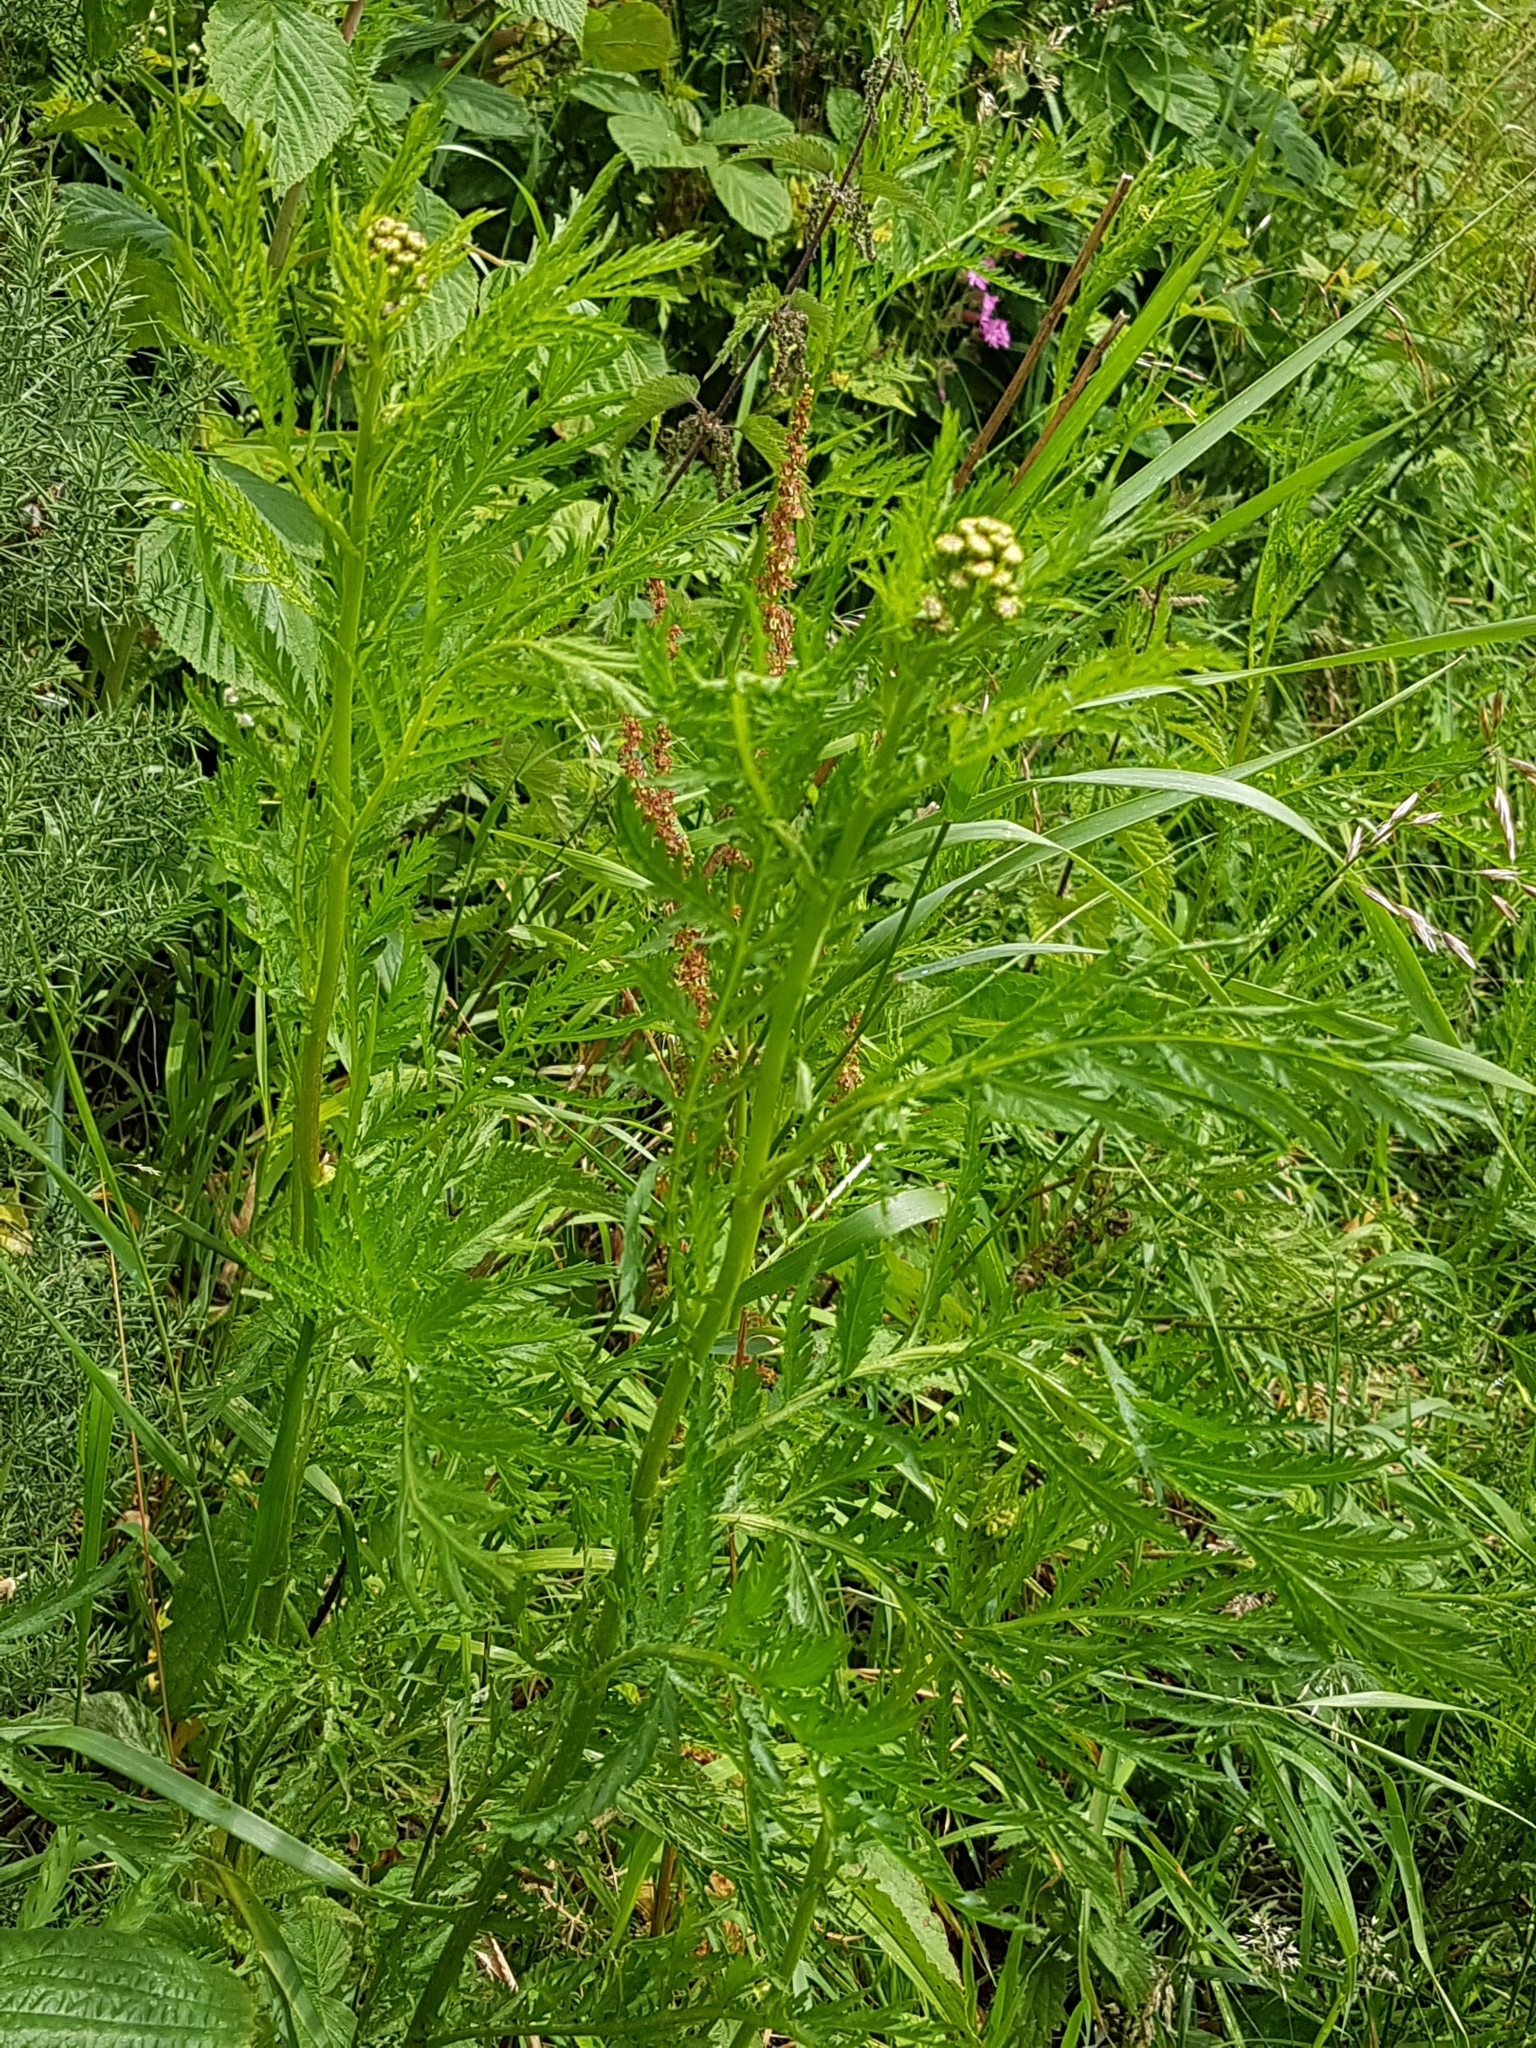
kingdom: Plantae
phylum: Tracheophyta
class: Magnoliopsida
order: Asterales
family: Asteraceae
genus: Tanacetum
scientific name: Tanacetum vulgare
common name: Common tansy
